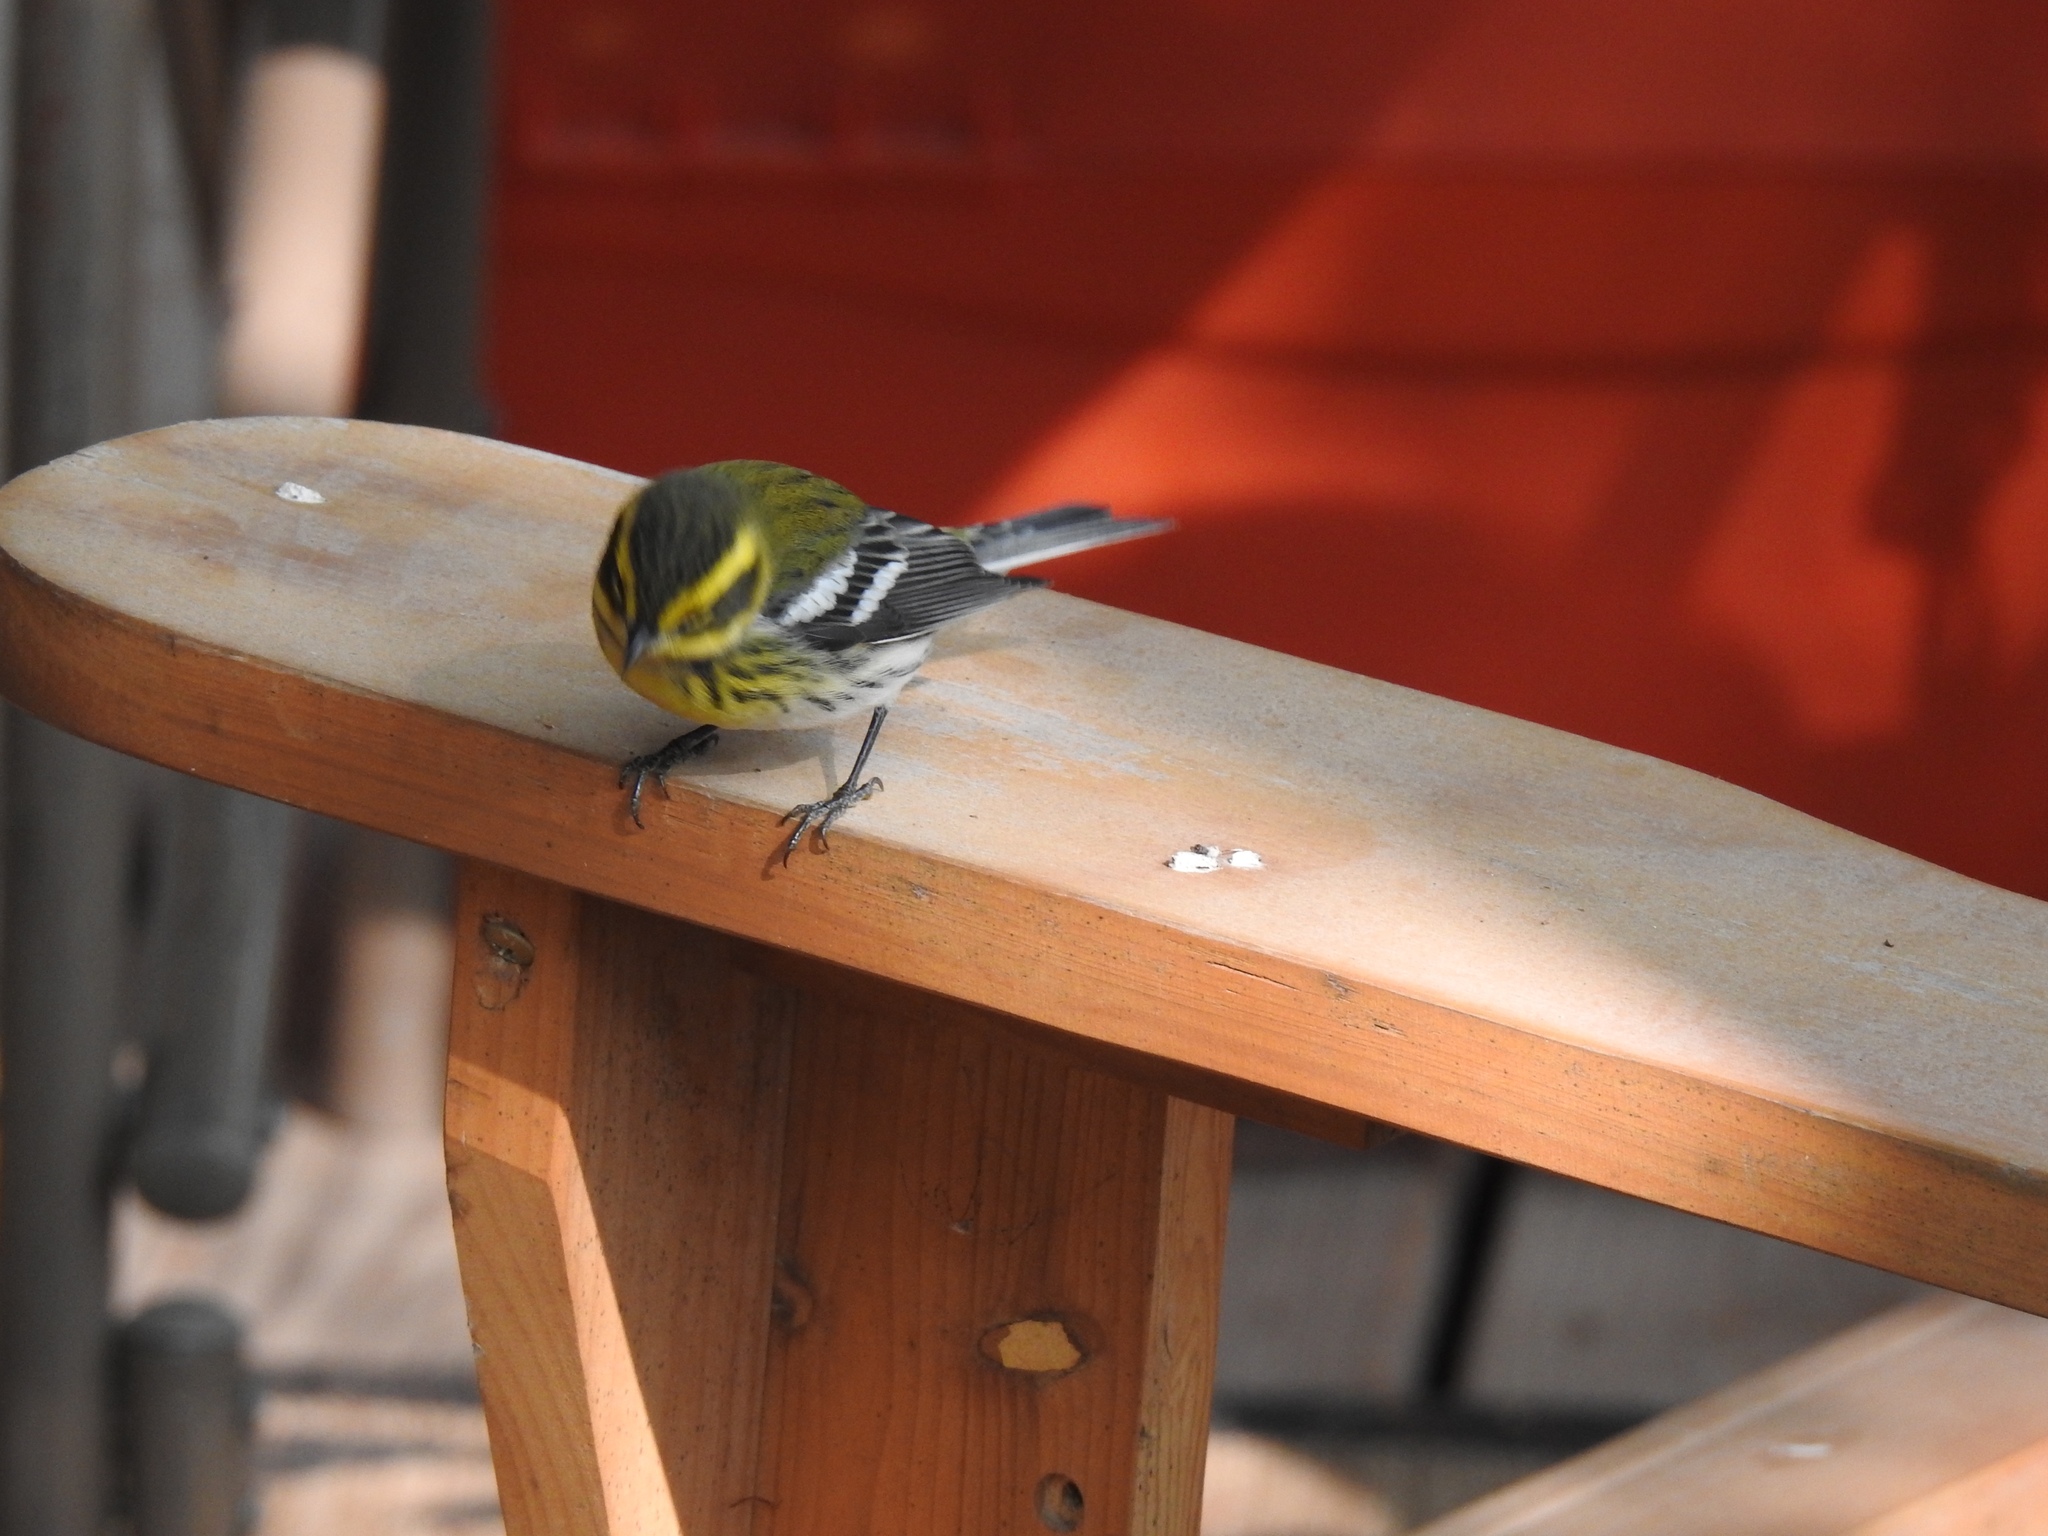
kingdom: Animalia
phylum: Chordata
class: Aves
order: Passeriformes
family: Parulidae
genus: Setophaga
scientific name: Setophaga townsendi
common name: Townsend's warbler
